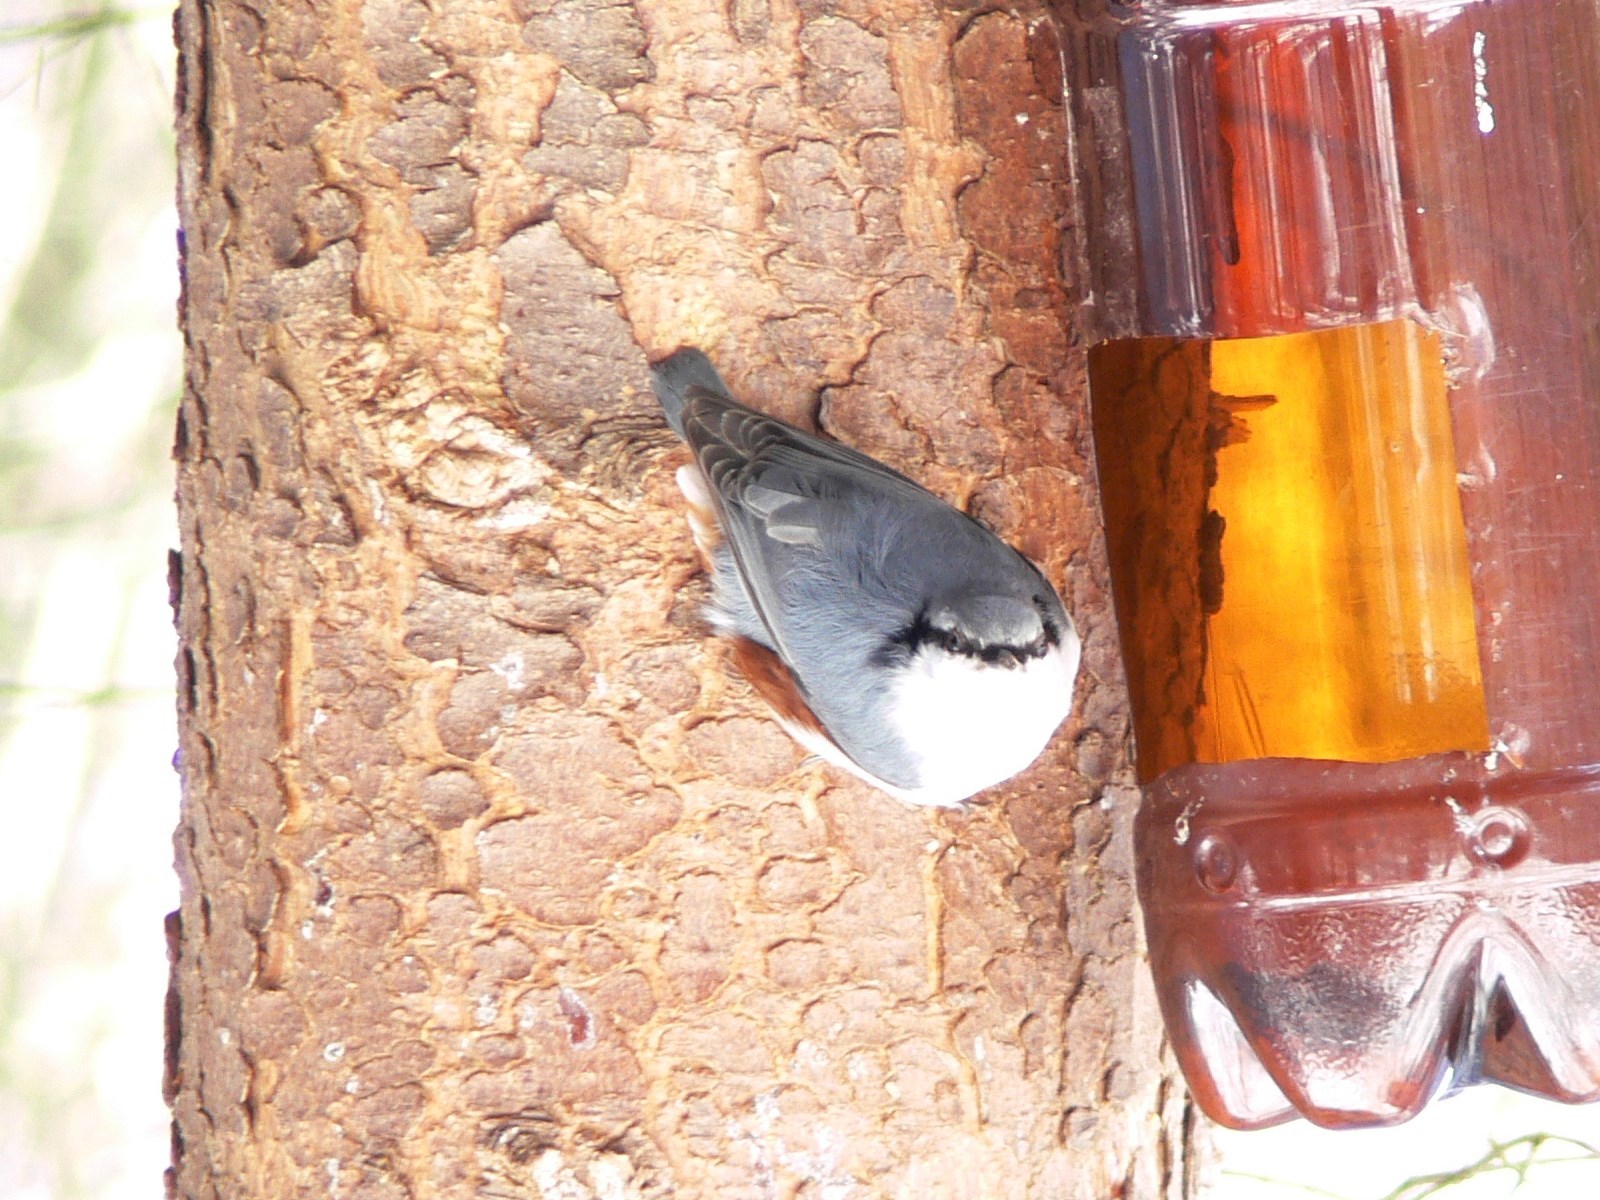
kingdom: Animalia
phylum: Chordata
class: Aves
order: Passeriformes
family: Sittidae
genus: Sitta
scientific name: Sitta europaea
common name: Eurasian nuthatch
